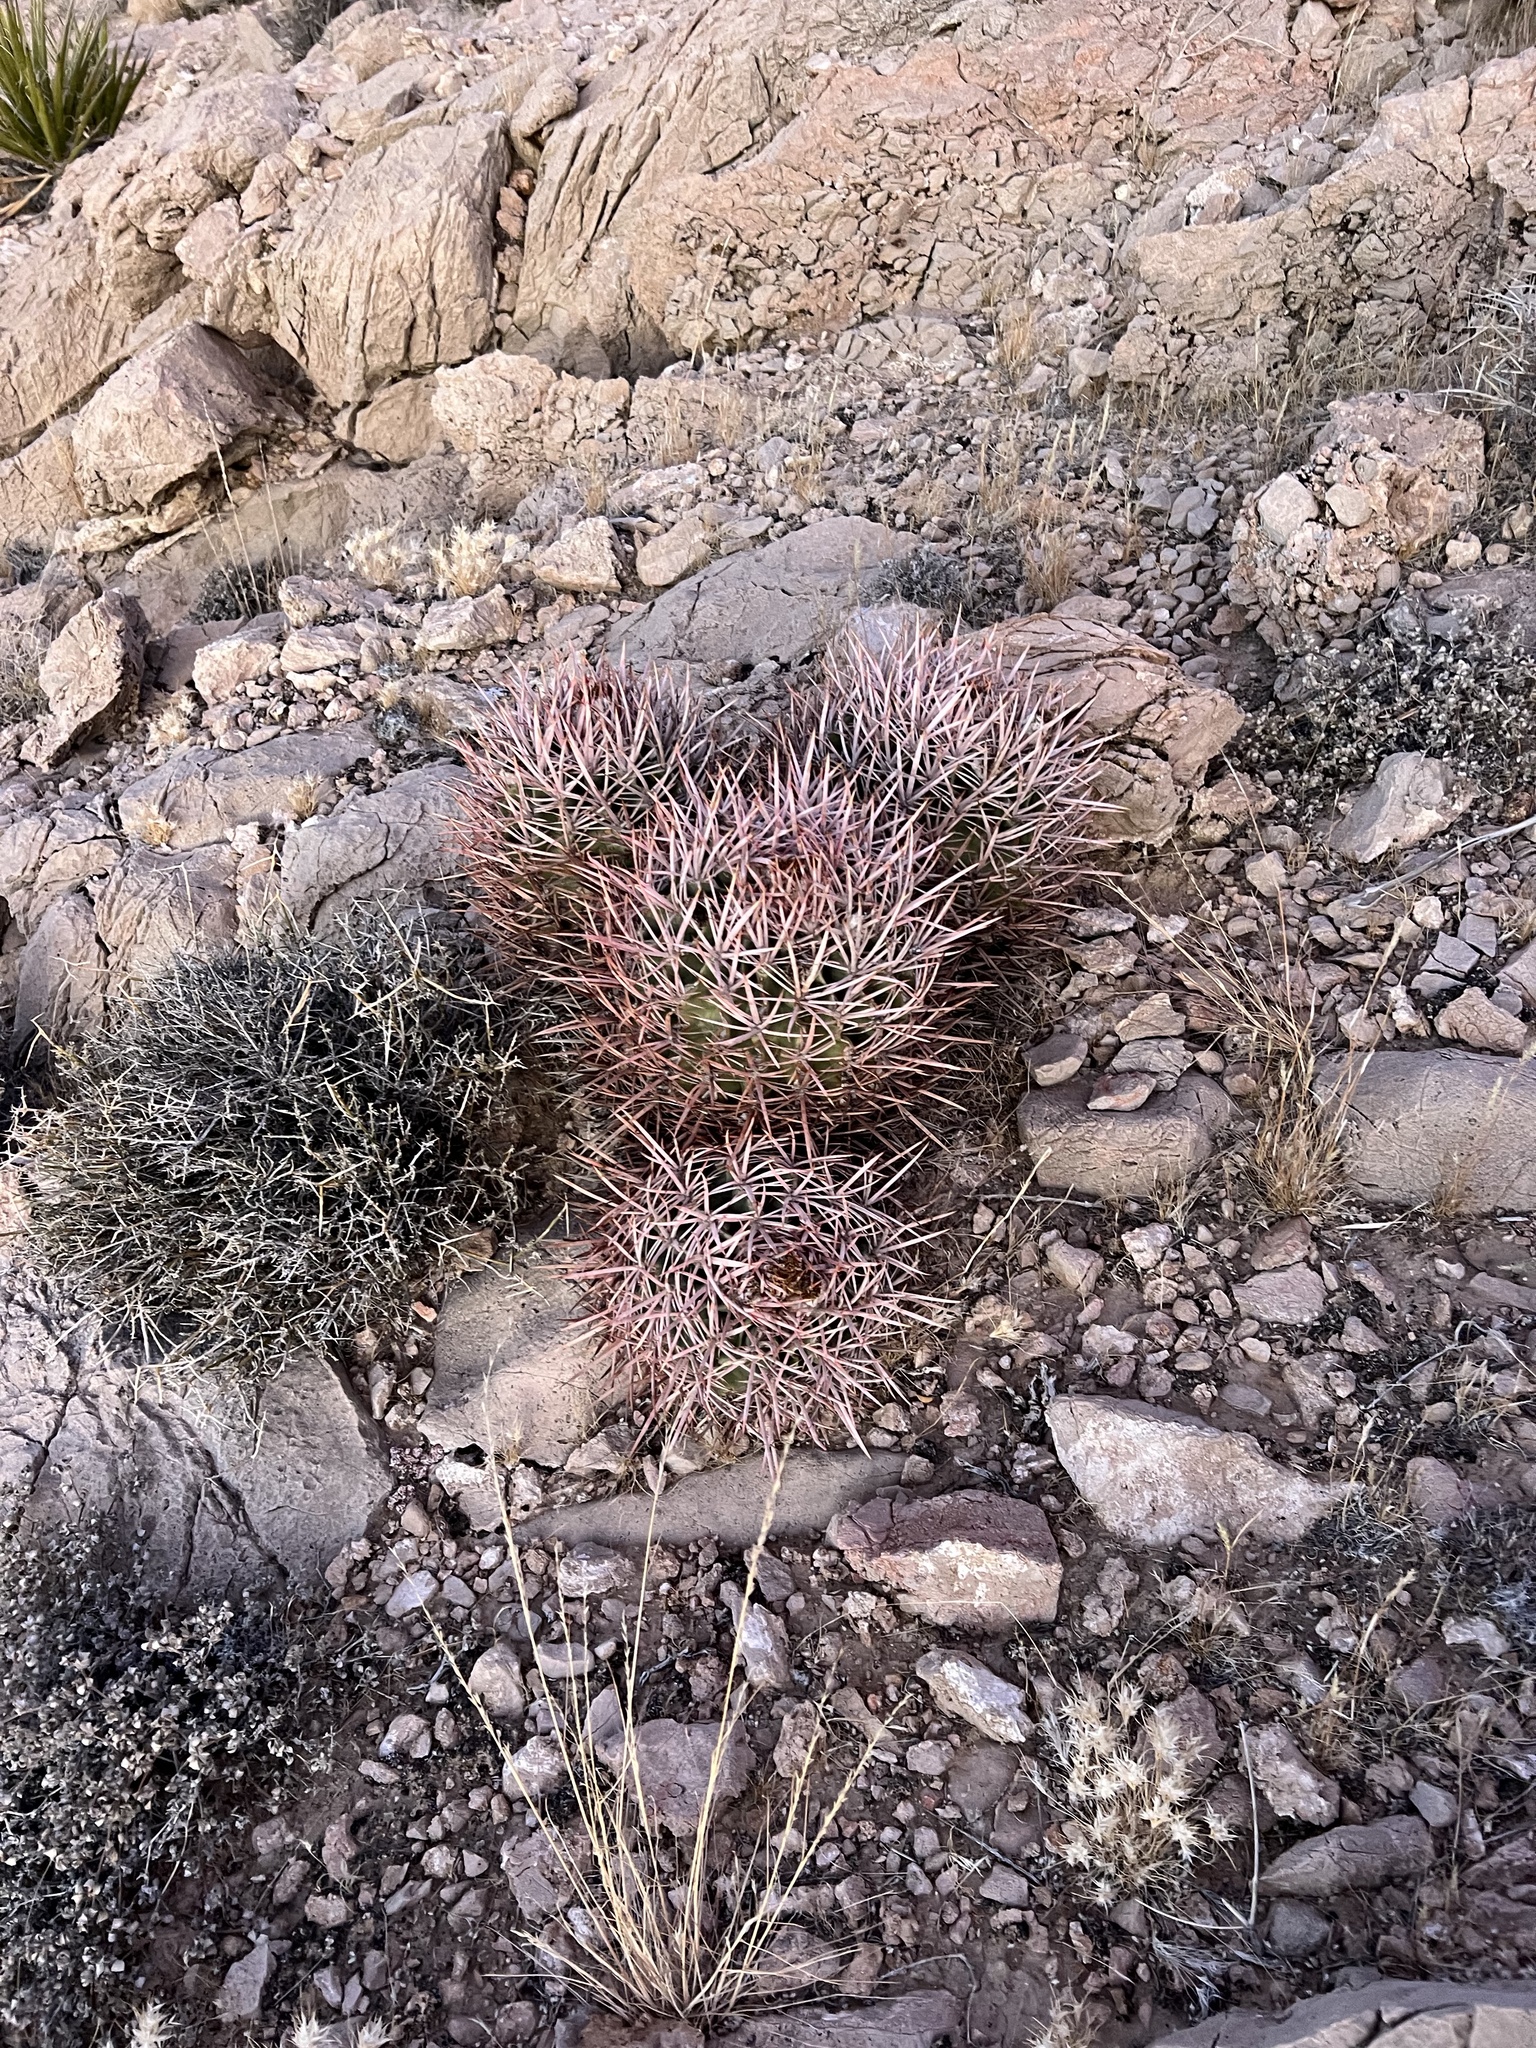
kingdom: Plantae
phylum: Tracheophyta
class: Magnoliopsida
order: Caryophyllales
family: Cactaceae
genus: Echinocactus
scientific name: Echinocactus polycephalus
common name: Cottontop cactus
